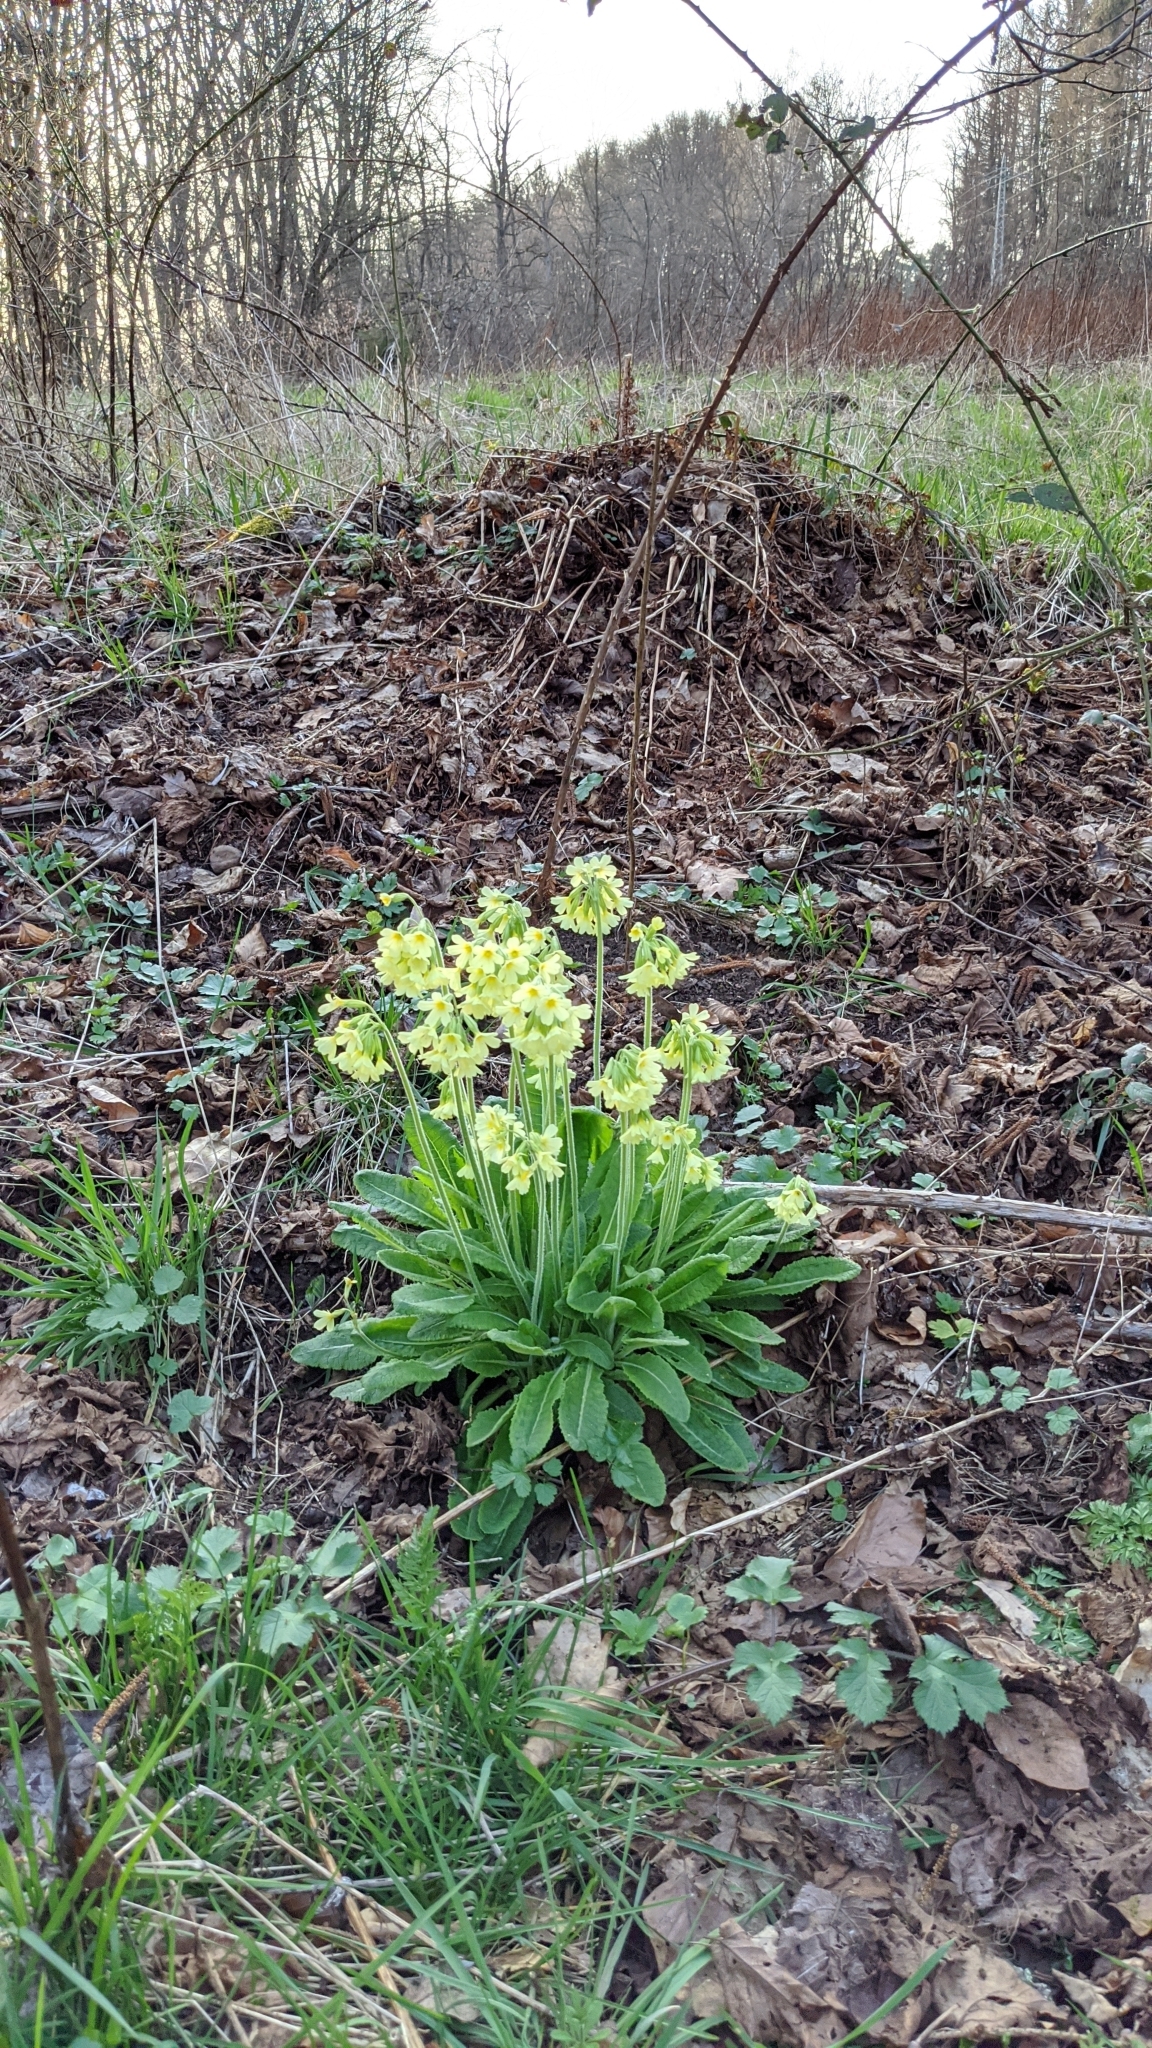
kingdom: Plantae
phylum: Tracheophyta
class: Magnoliopsida
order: Ericales
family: Primulaceae
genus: Primula
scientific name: Primula elatior
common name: Oxlip
